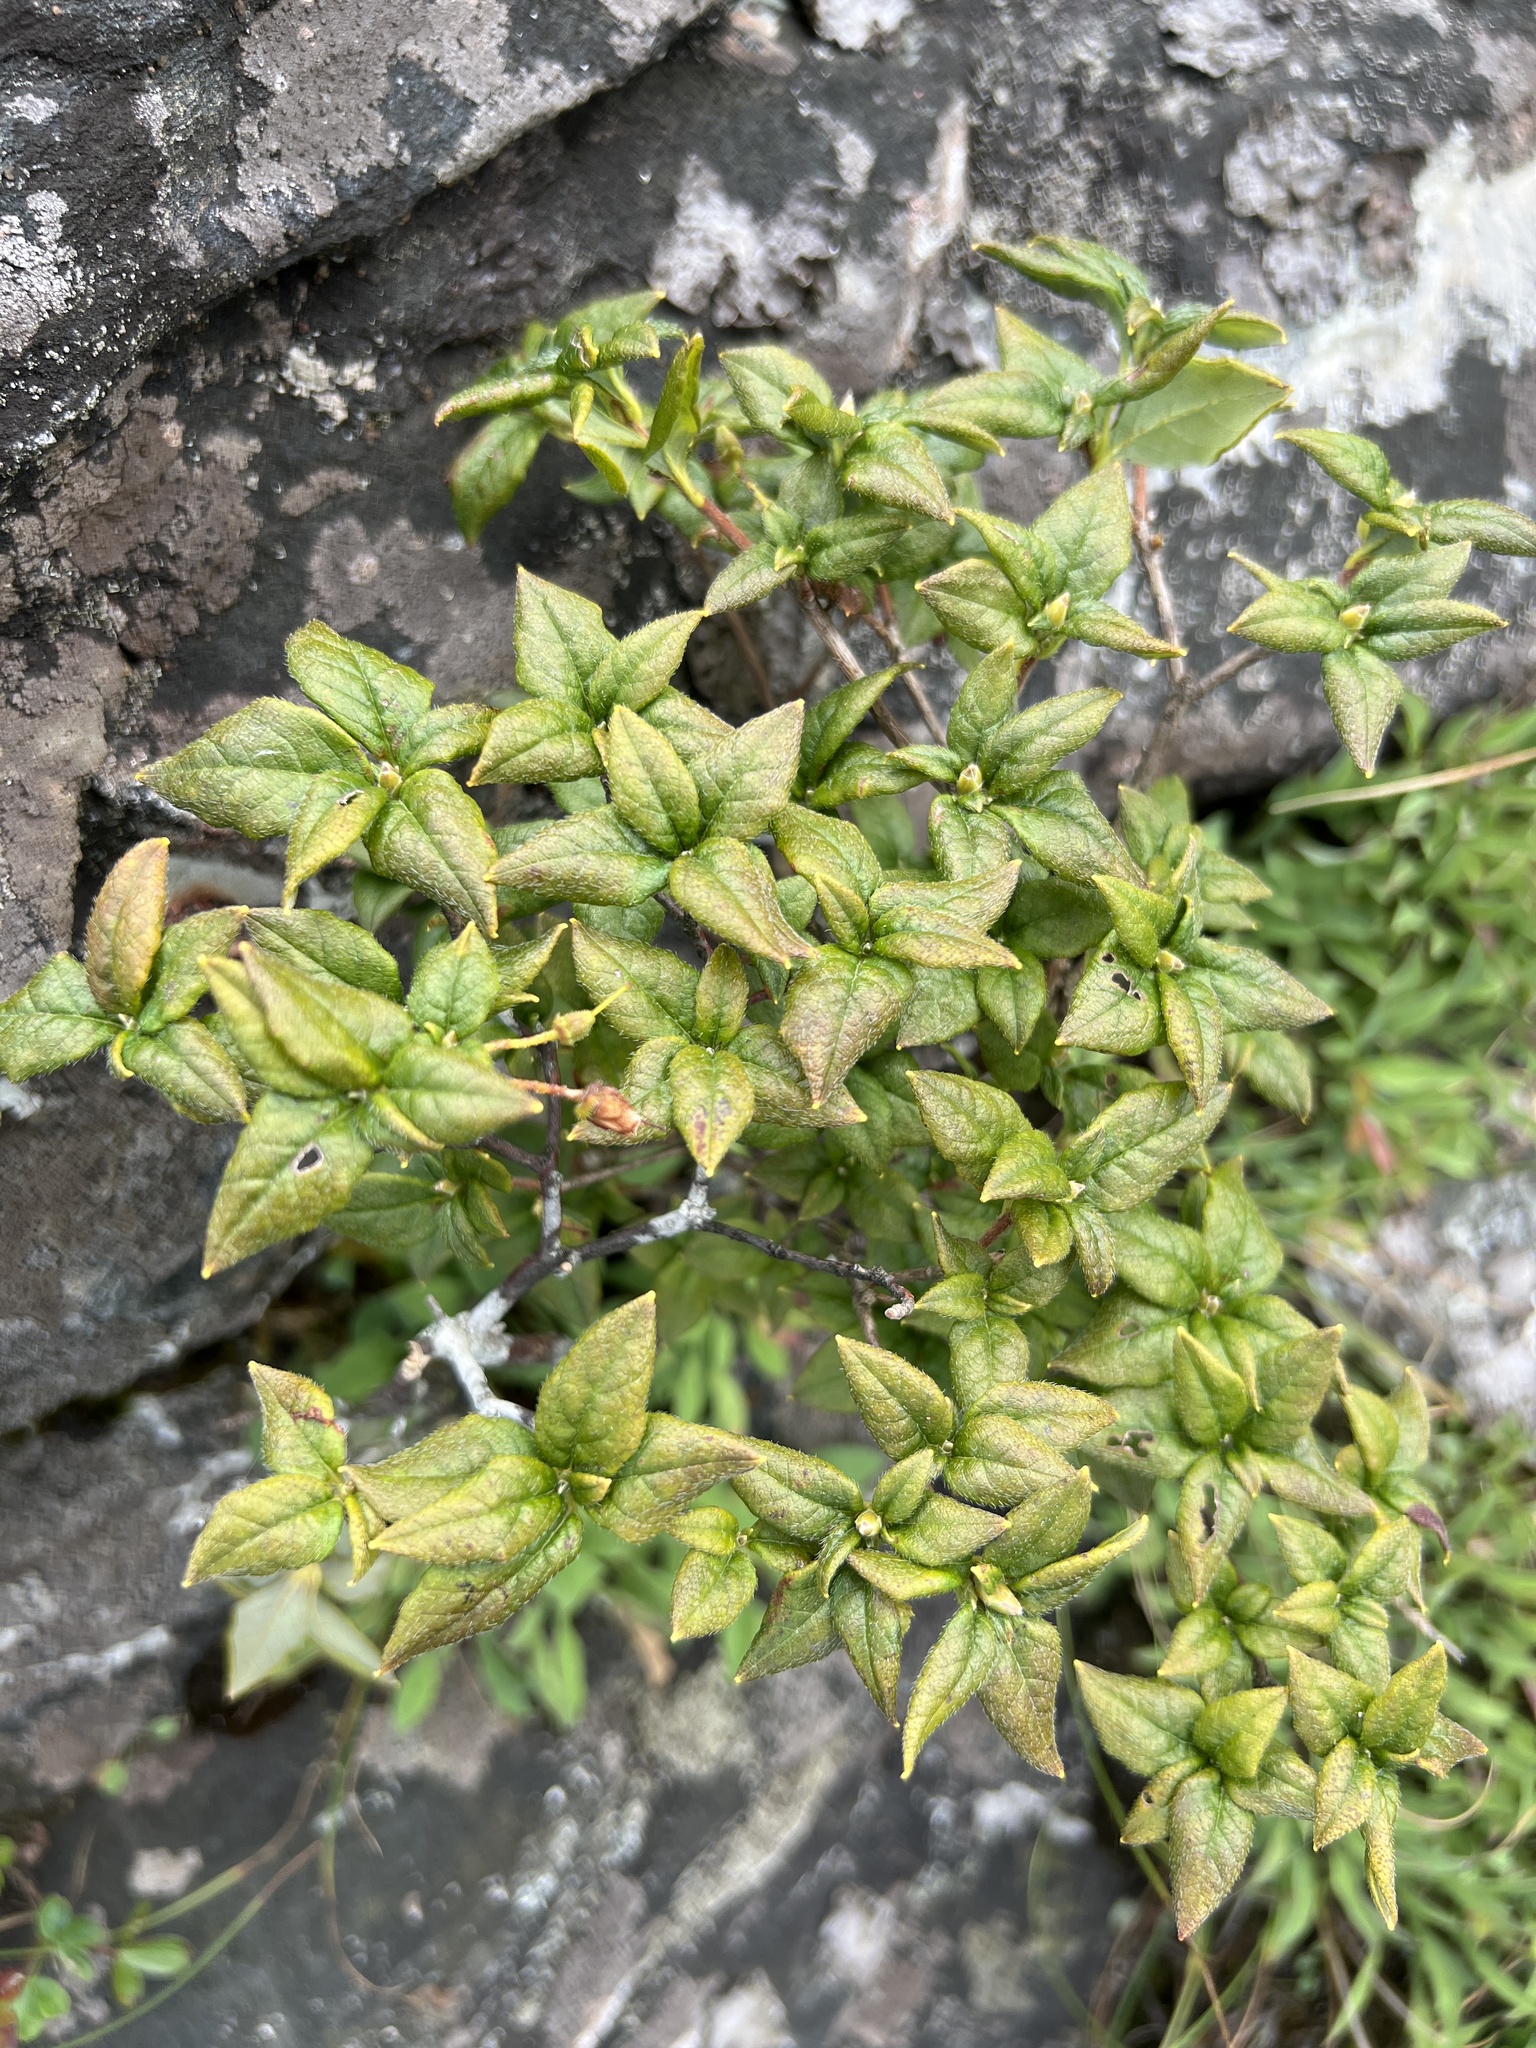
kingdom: Plantae
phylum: Tracheophyta
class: Magnoliopsida
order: Ericales
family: Ericaceae
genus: Rhododendron
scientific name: Rhododendron pilosum
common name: Hairy minniebush
